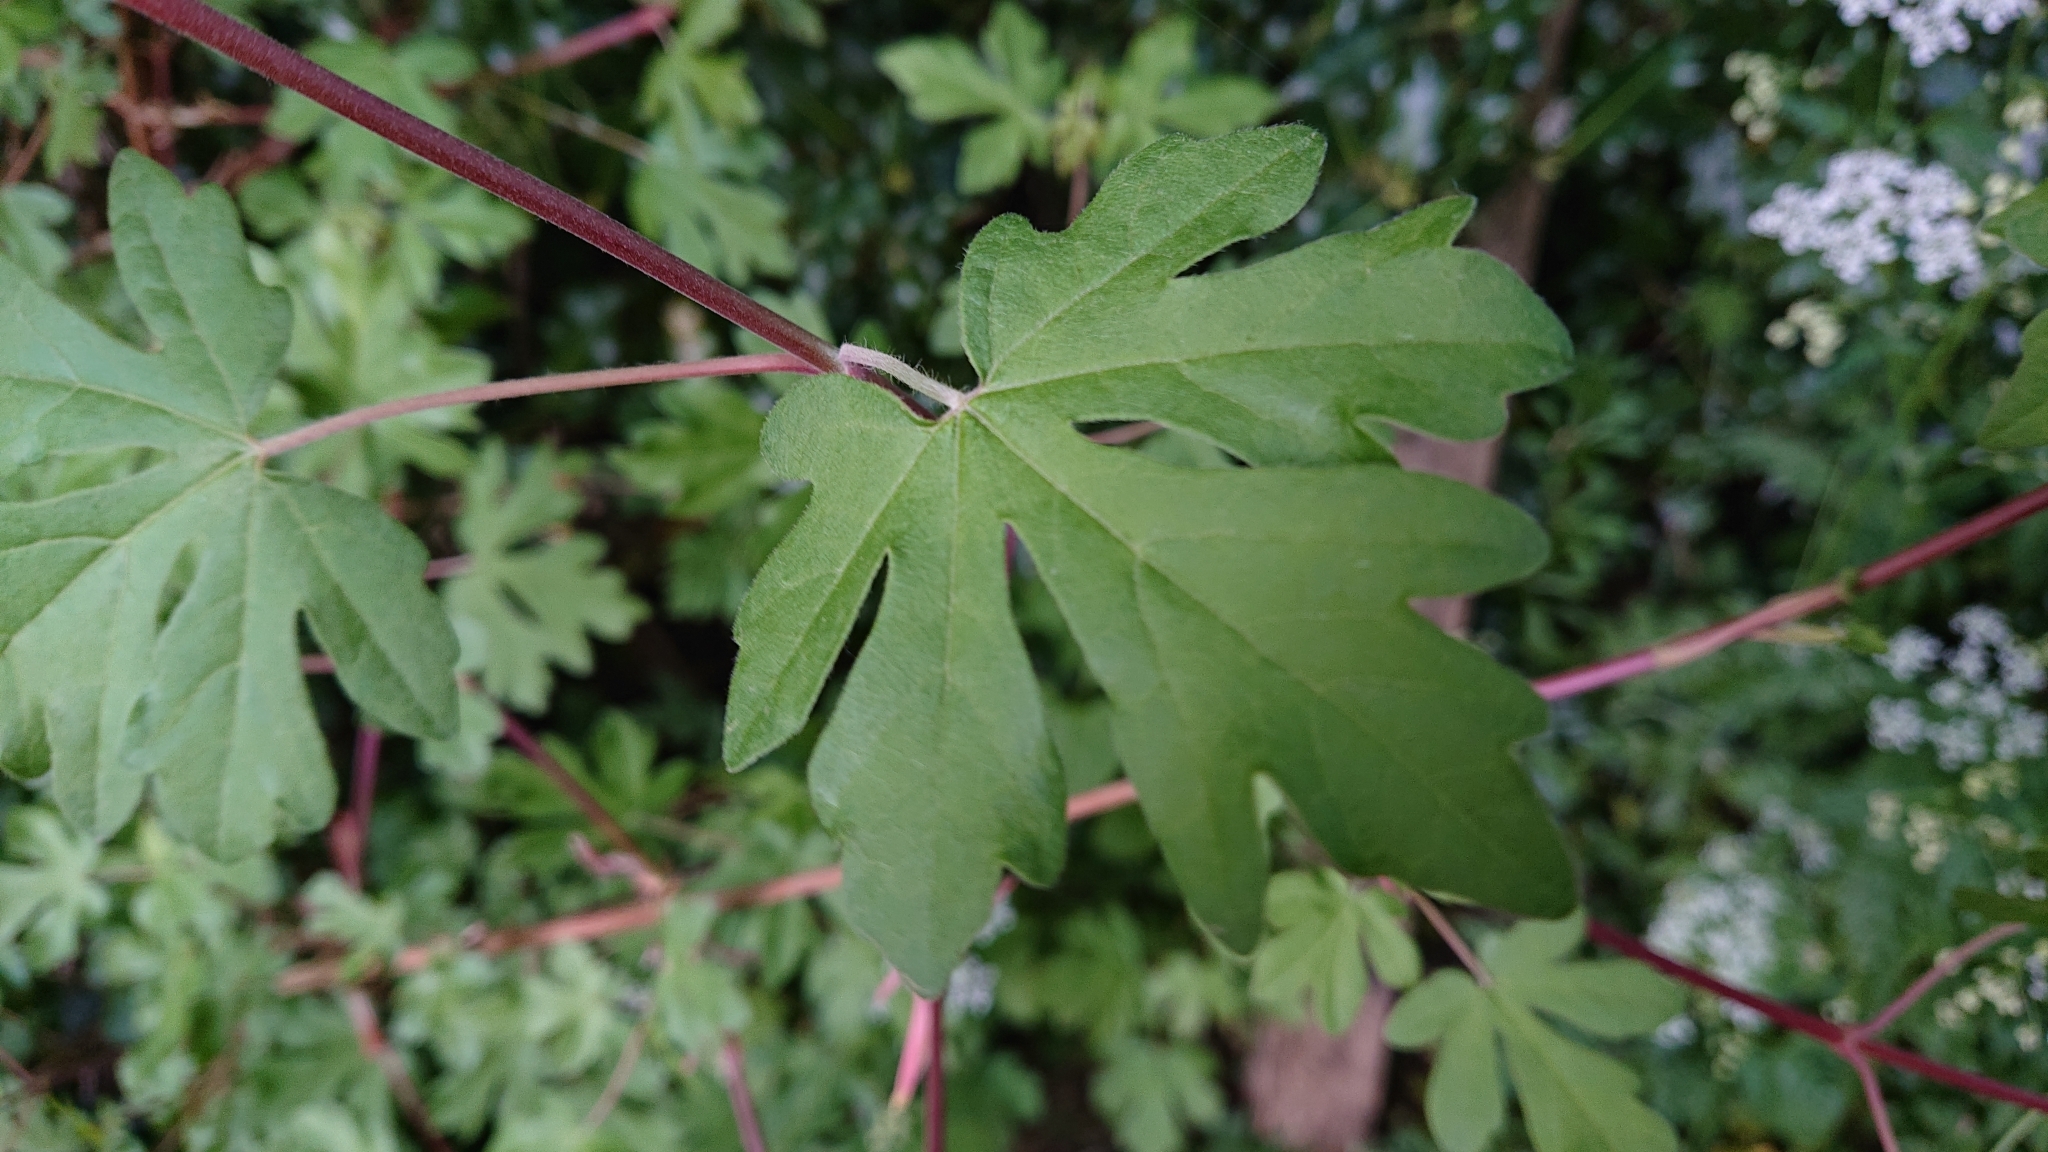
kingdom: Plantae
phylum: Tracheophyta
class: Magnoliopsida
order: Sapindales
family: Sapindaceae
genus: Acer
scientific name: Acer campestre
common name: Field maple
